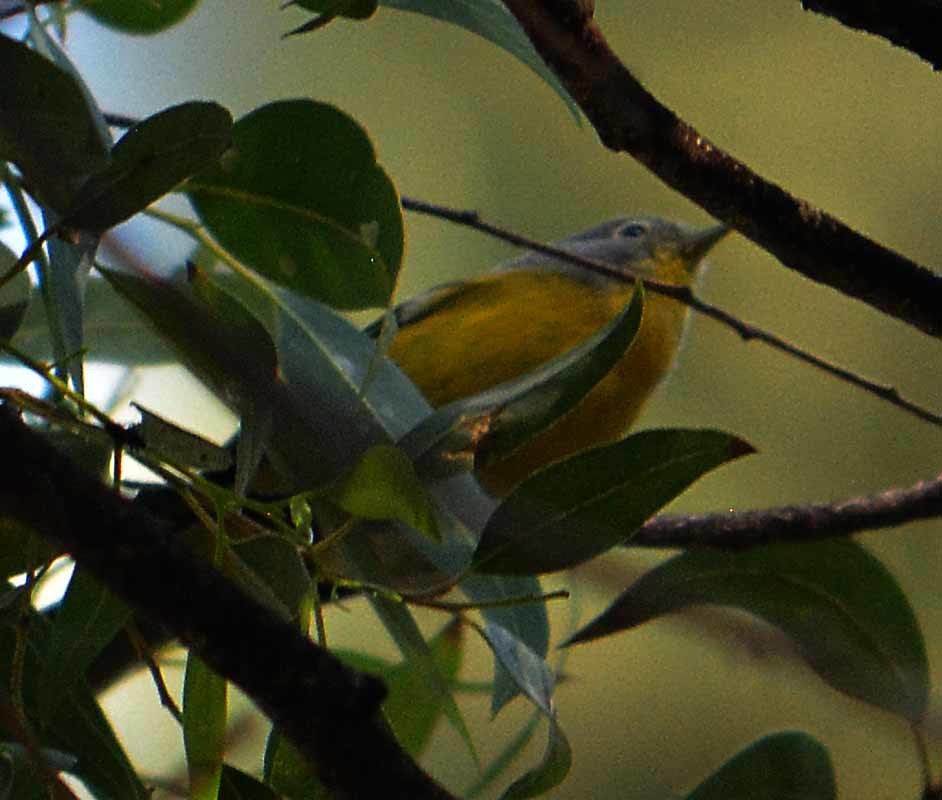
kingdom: Animalia
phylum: Chordata
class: Aves
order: Passeriformes
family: Parulidae
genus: Leiothlypis
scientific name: Leiothlypis ruficapilla
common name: Nashville warbler
